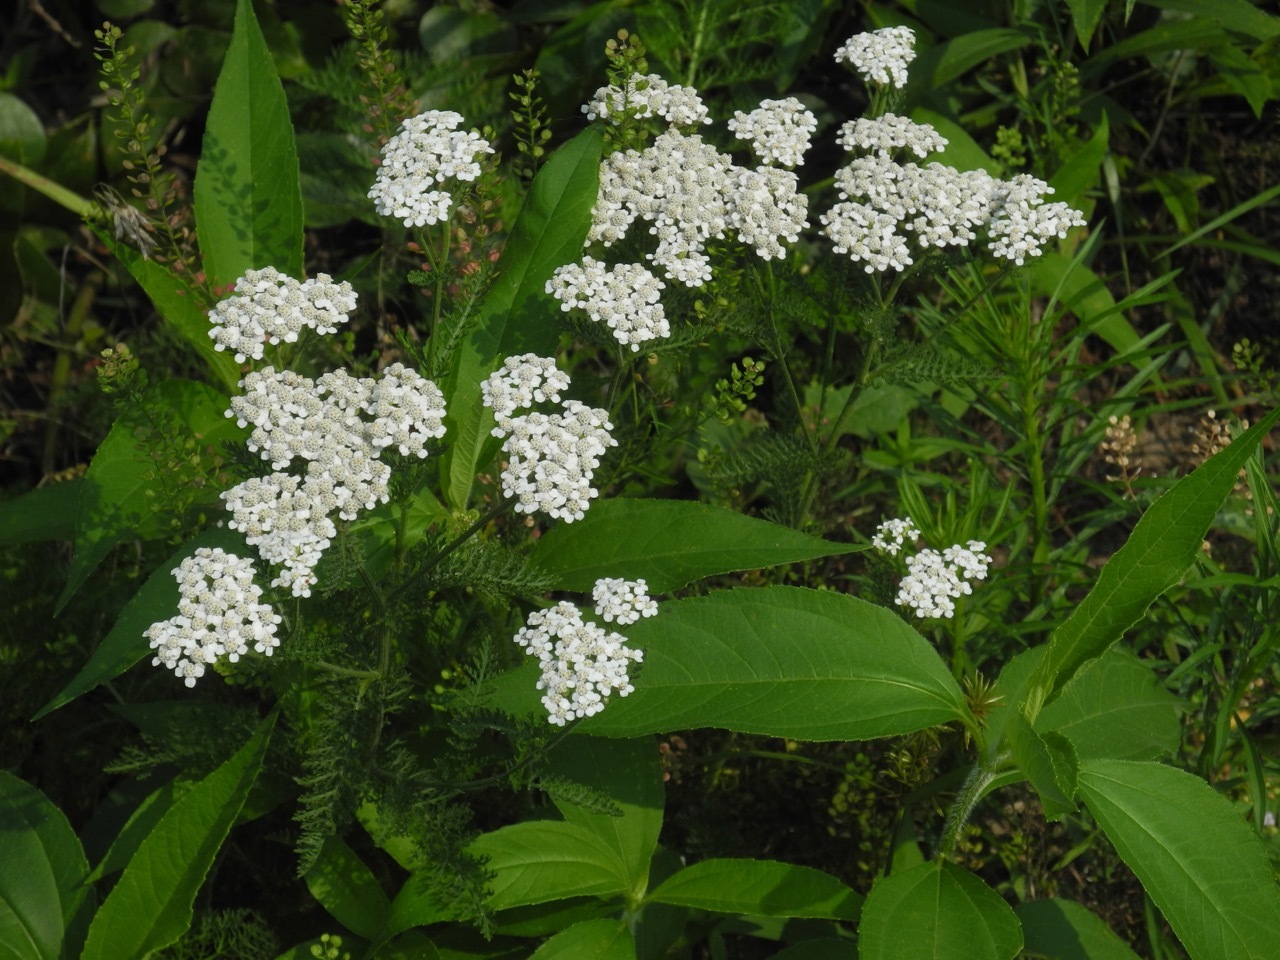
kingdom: Plantae
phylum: Tracheophyta
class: Magnoliopsida
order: Asterales
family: Asteraceae
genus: Achillea
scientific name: Achillea millefolium
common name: Yarrow
